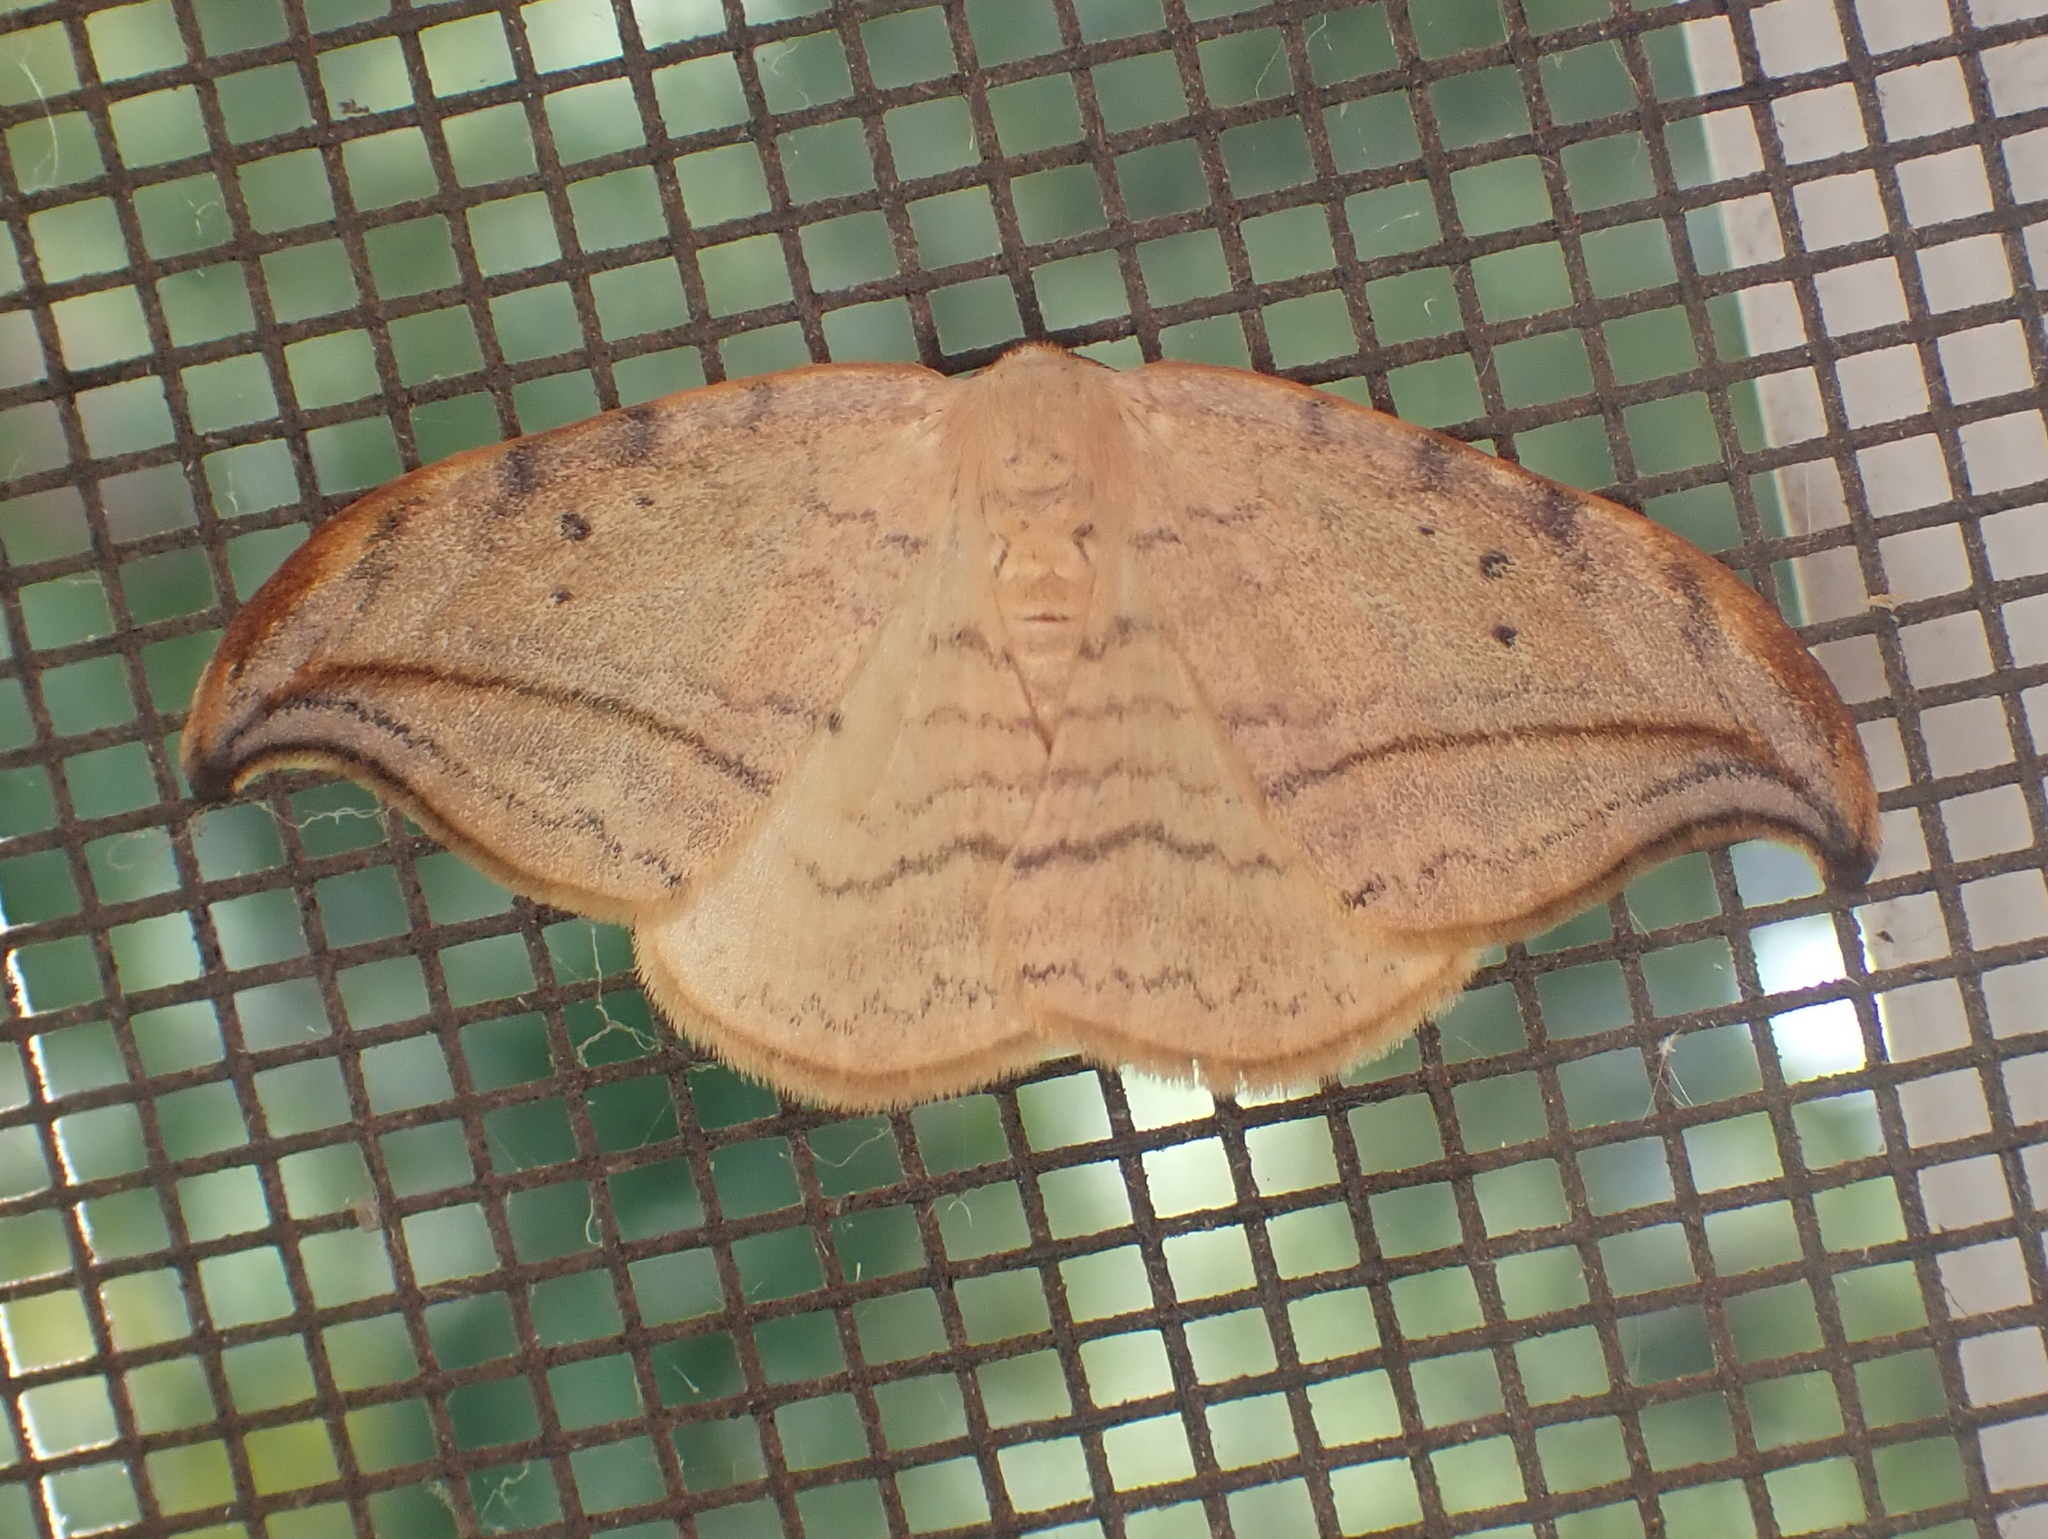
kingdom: Animalia
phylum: Arthropoda
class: Insecta
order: Lepidoptera
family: Drepanidae
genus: Drepana
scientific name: Drepana arcuata
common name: Arched hooktip moth
